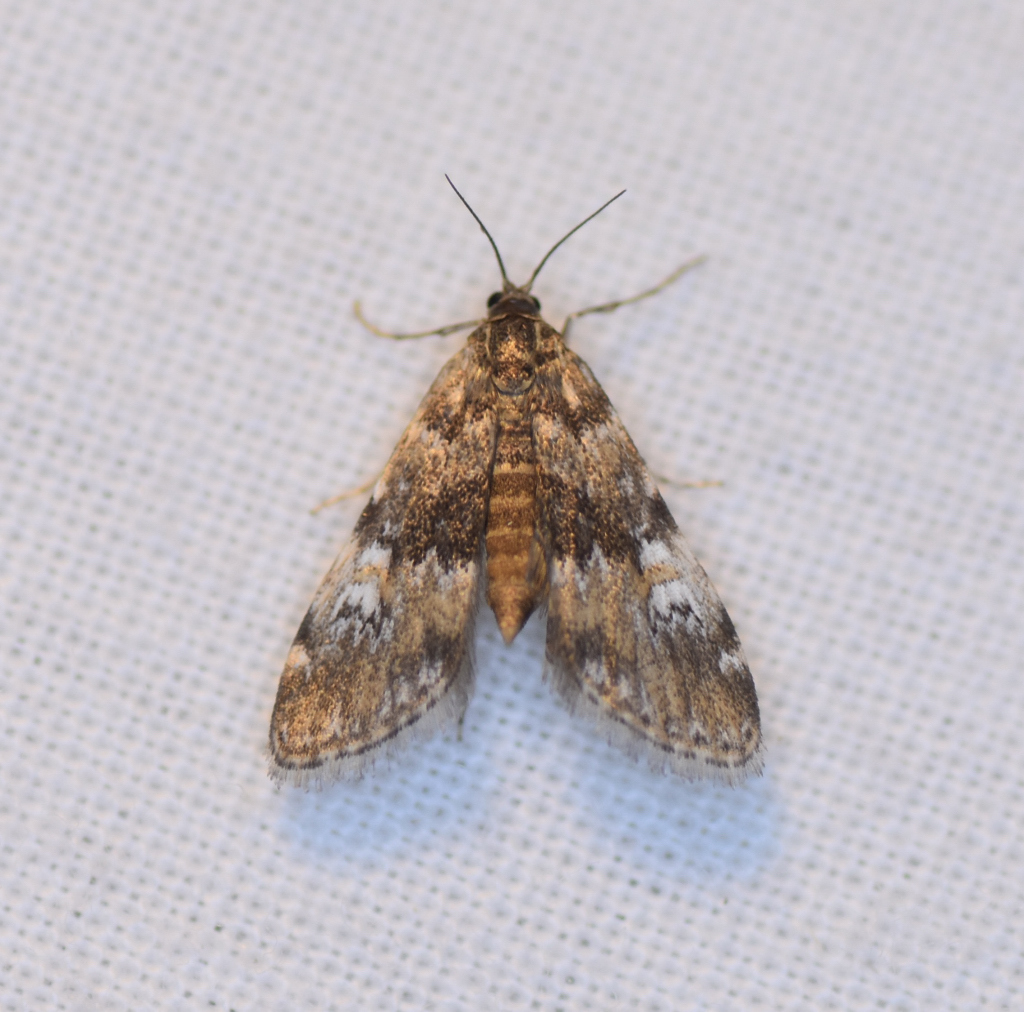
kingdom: Animalia
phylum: Arthropoda
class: Insecta
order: Lepidoptera
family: Crambidae
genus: Elophila
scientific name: Elophila obliteralis
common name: Waterlily leafcutter moth
